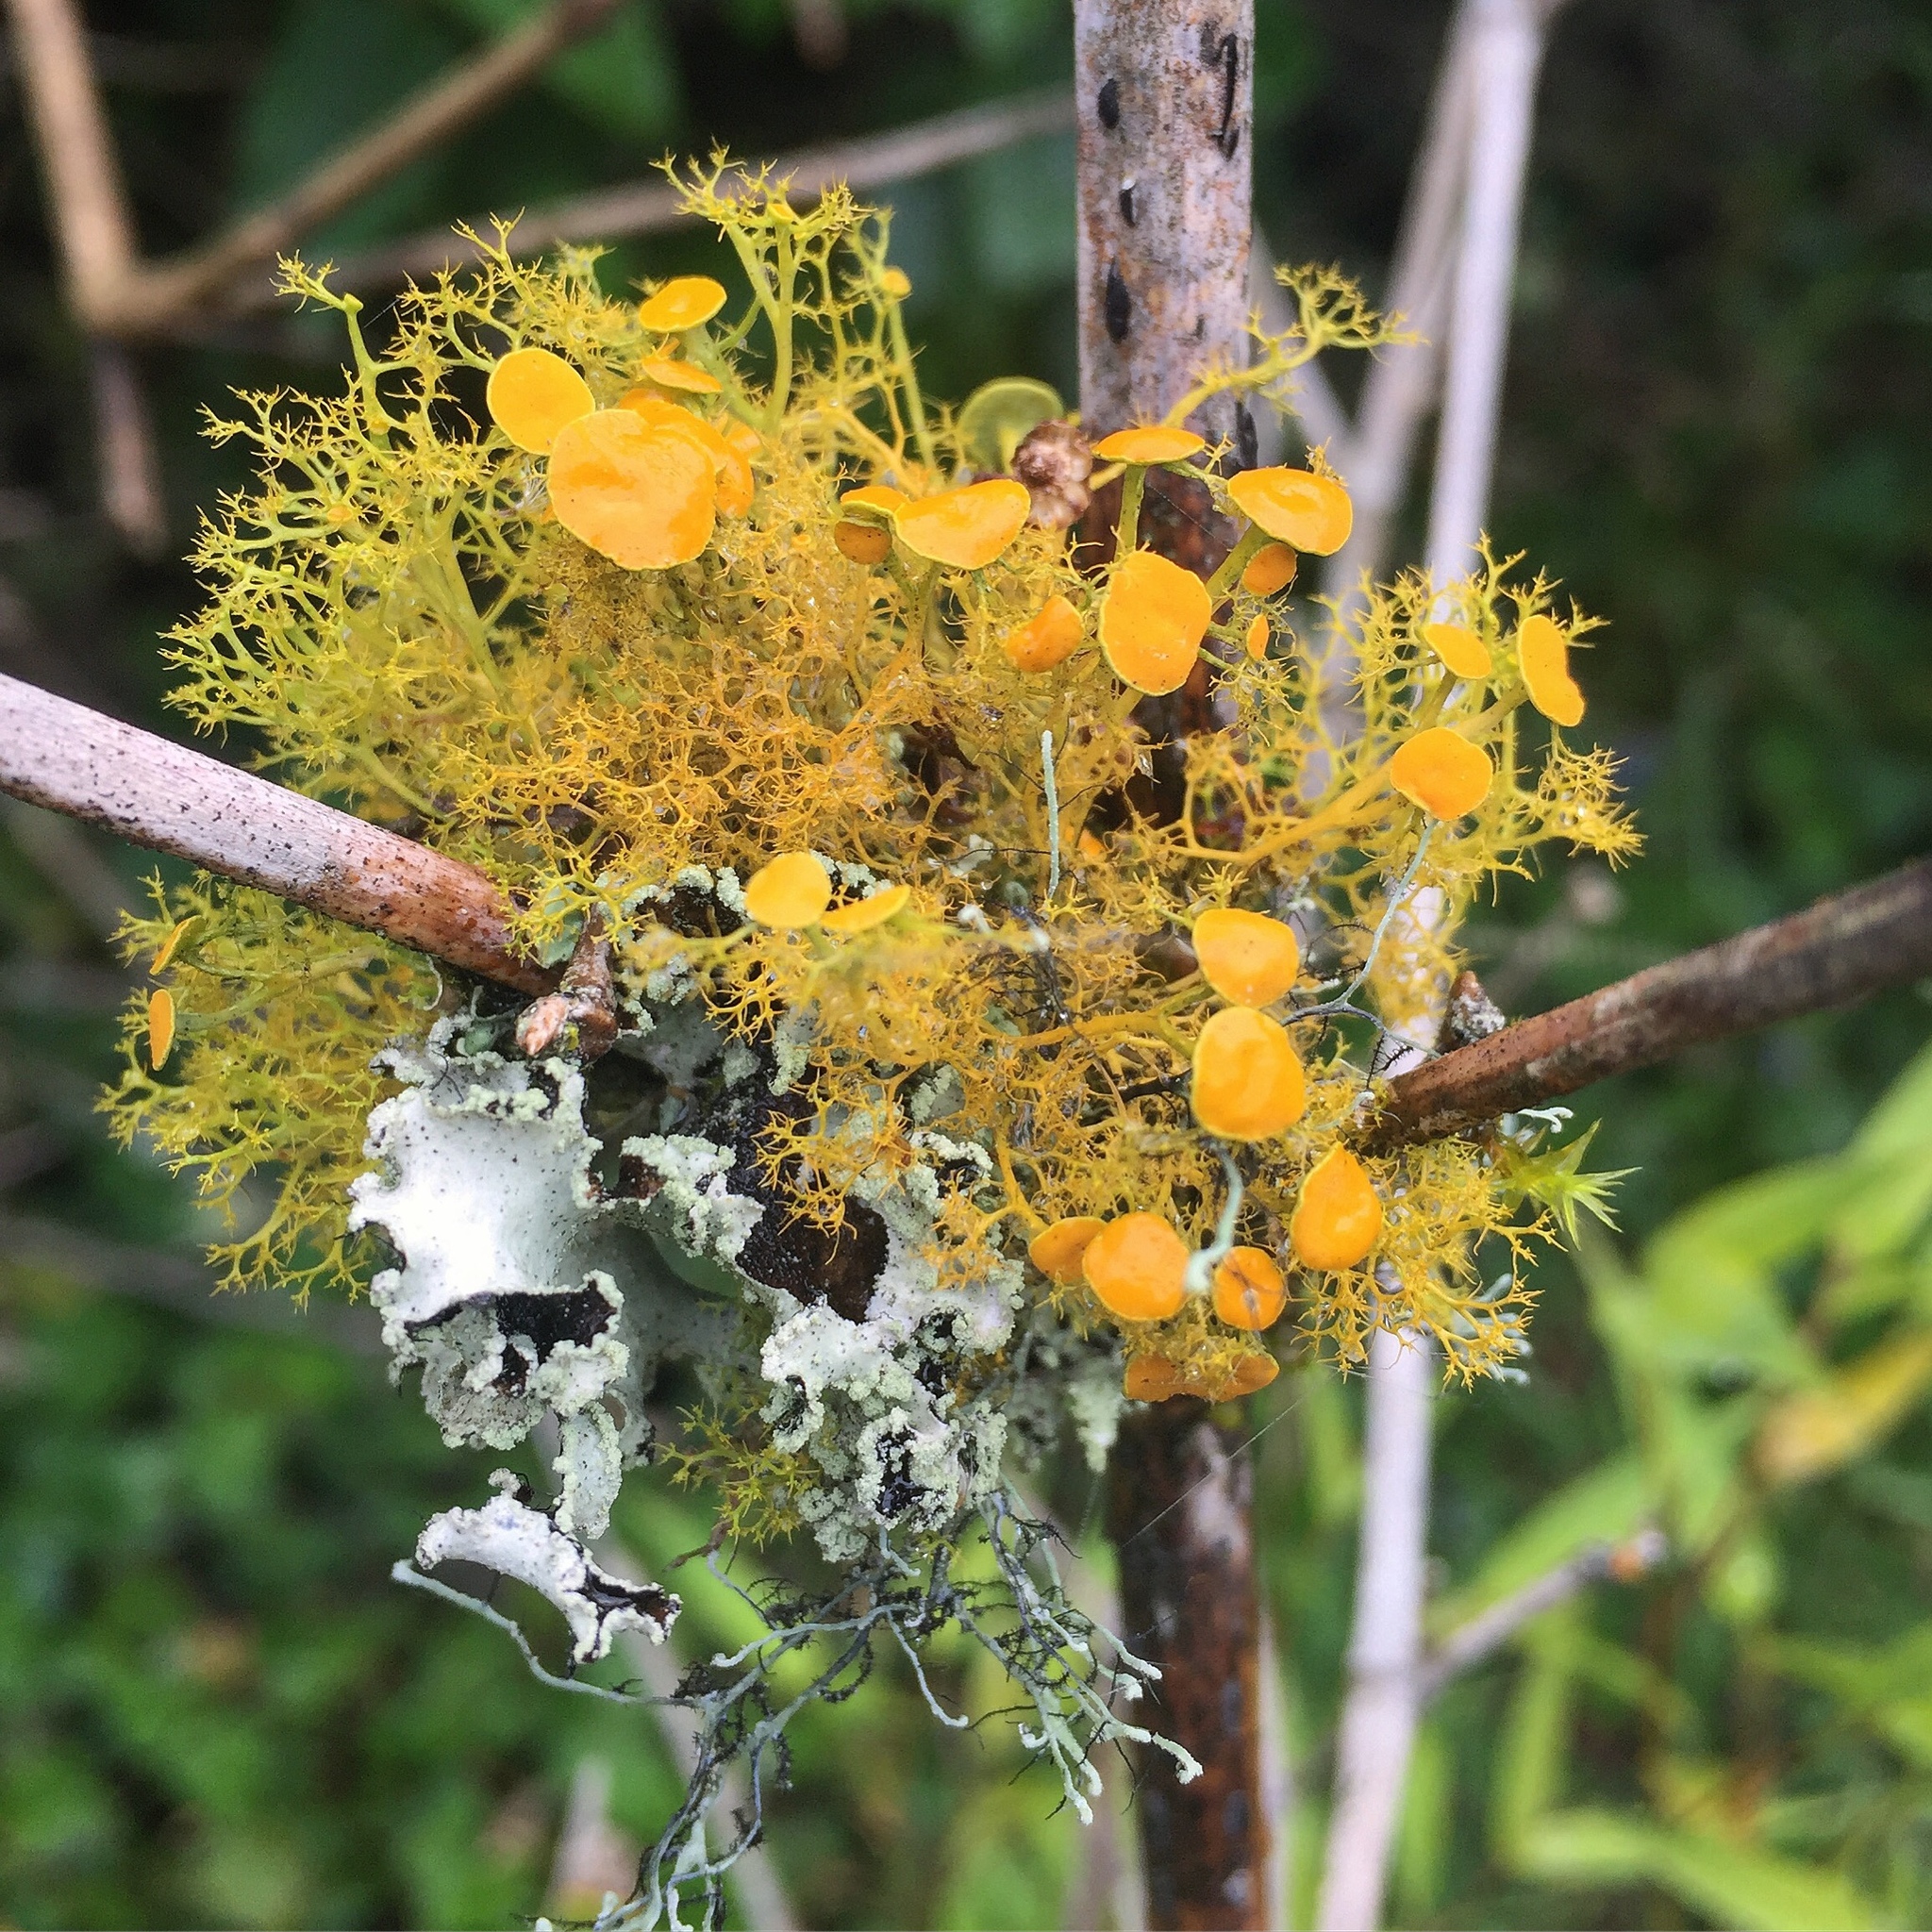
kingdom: Fungi
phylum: Ascomycota
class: Lecanoromycetes
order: Teloschistales
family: Teloschistaceae
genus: Teloschistes
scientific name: Teloschistes exilis
